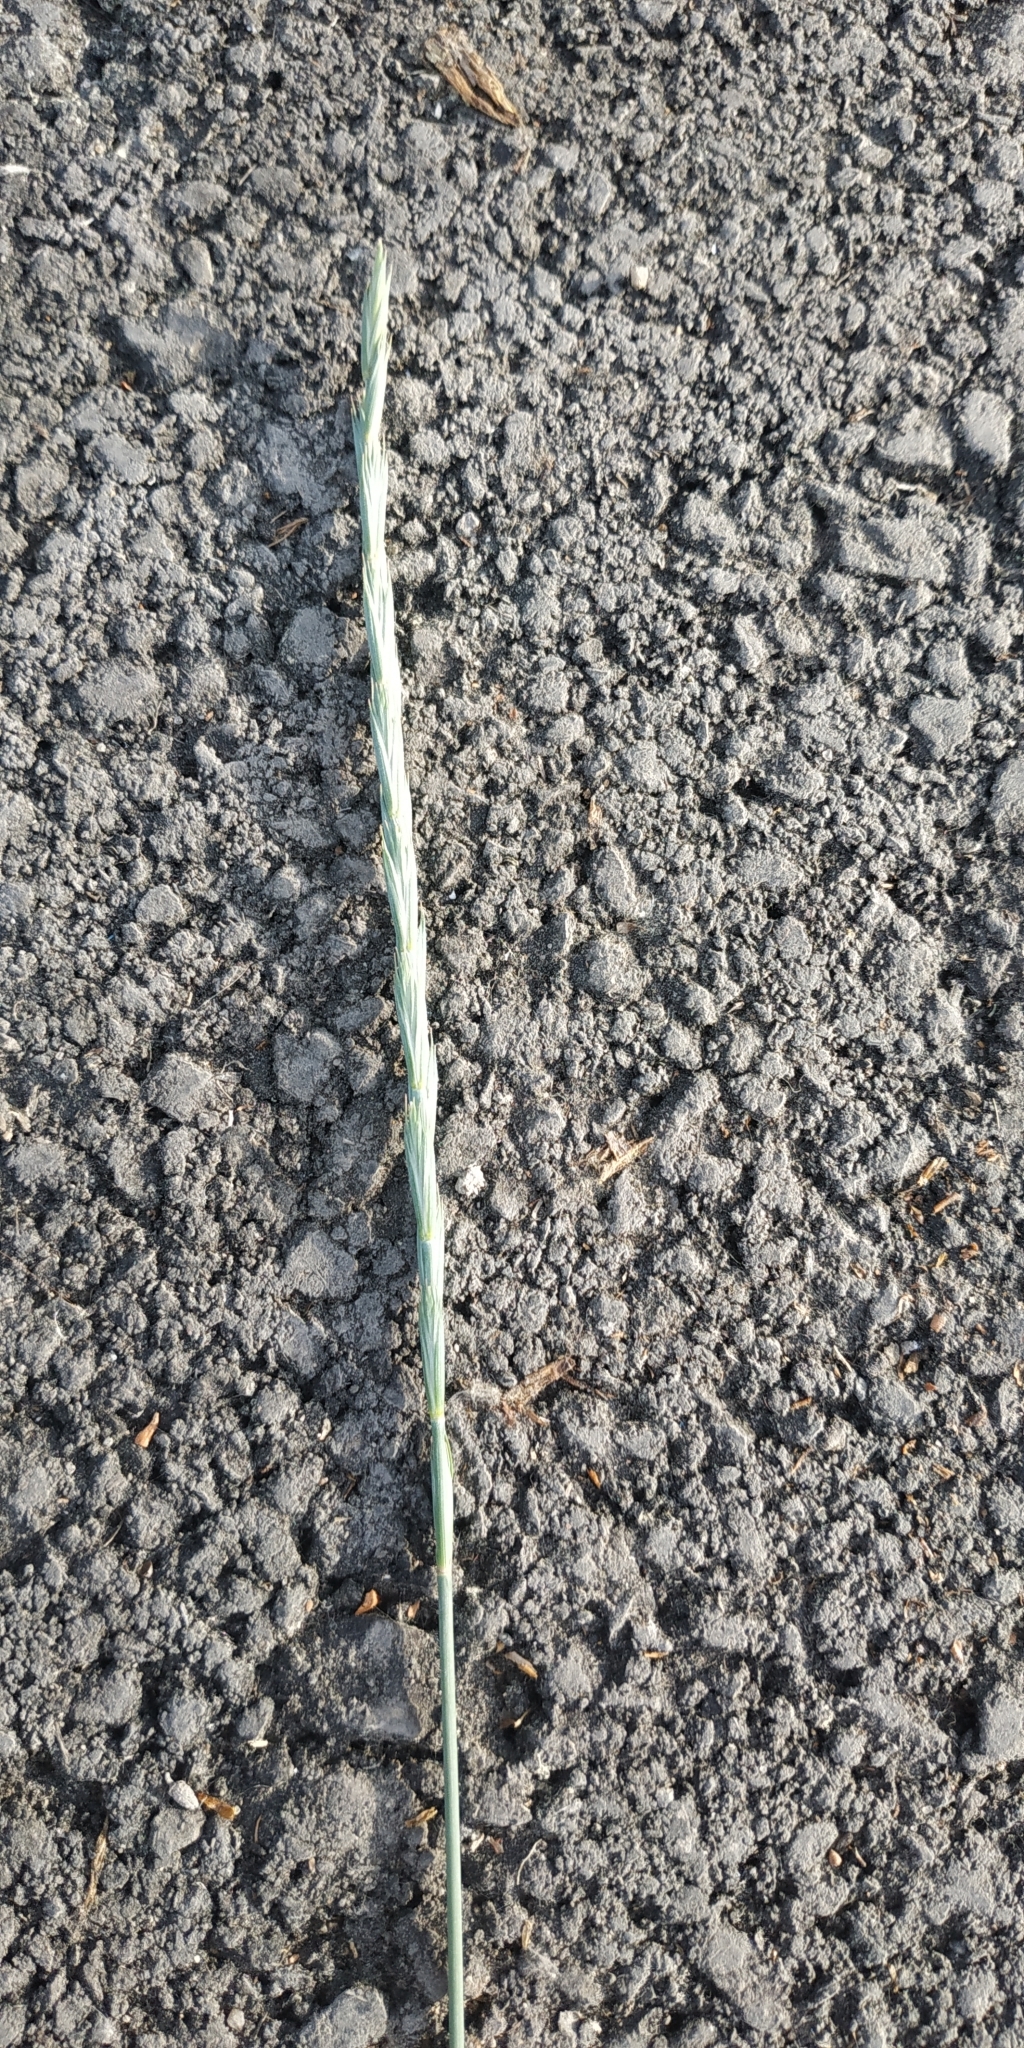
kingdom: Plantae
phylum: Tracheophyta
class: Liliopsida
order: Poales
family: Poaceae
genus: Elymus
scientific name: Elymus repens
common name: Quackgrass
